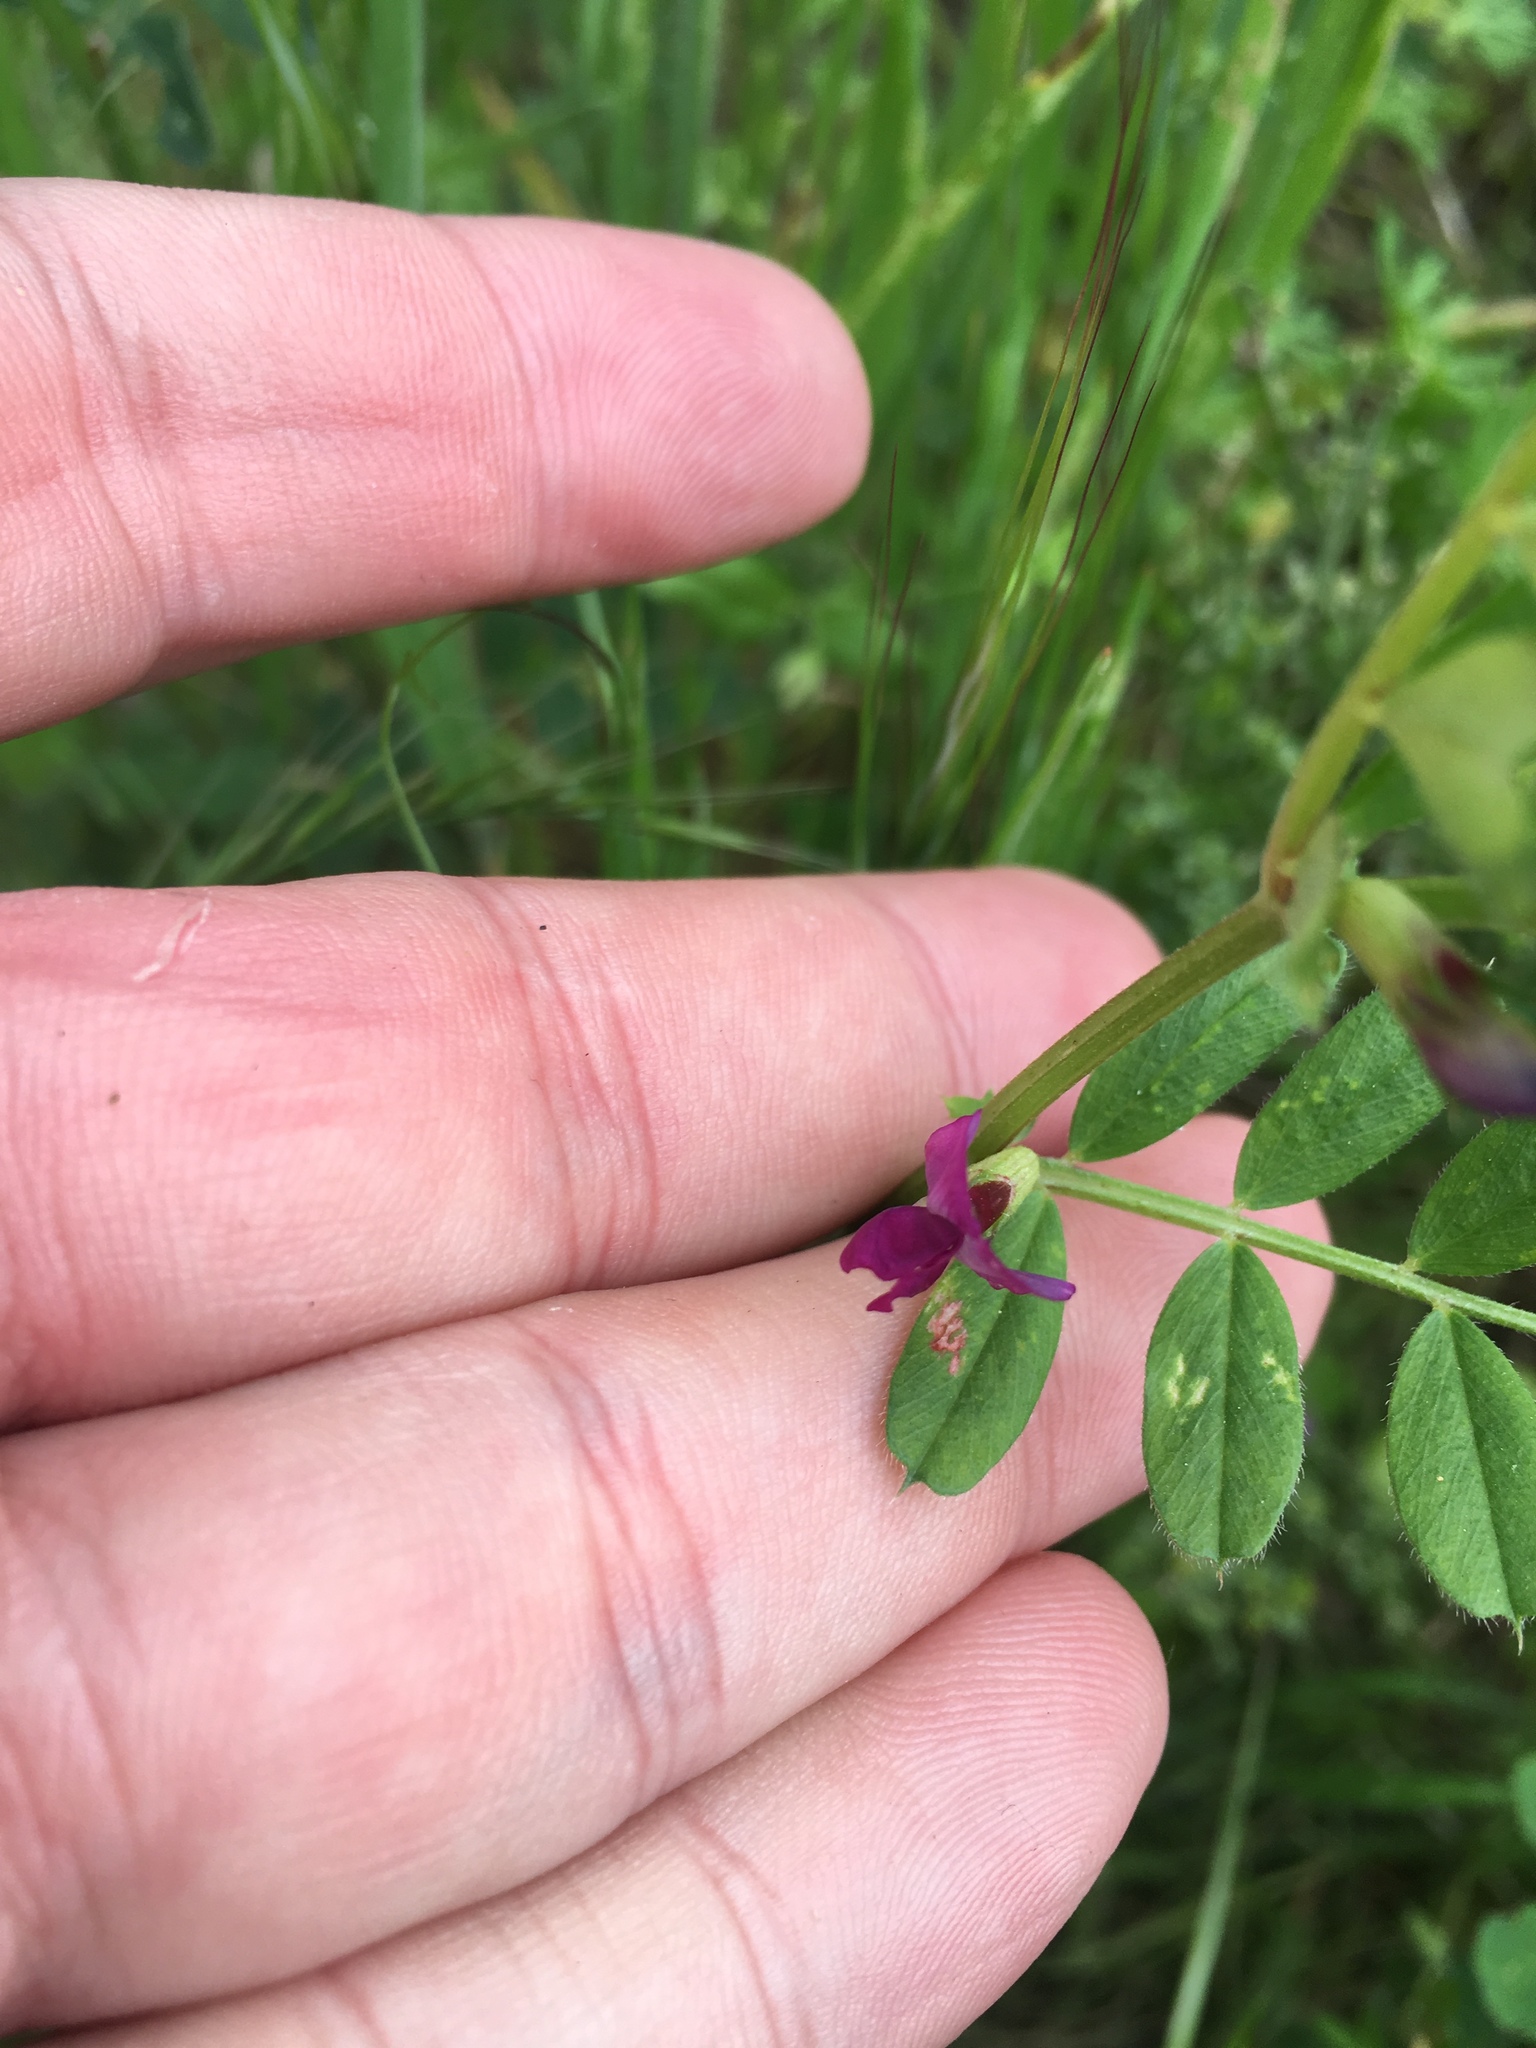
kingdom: Plantae
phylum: Tracheophyta
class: Magnoliopsida
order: Fabales
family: Fabaceae
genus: Vicia
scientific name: Vicia sativa
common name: Garden vetch
